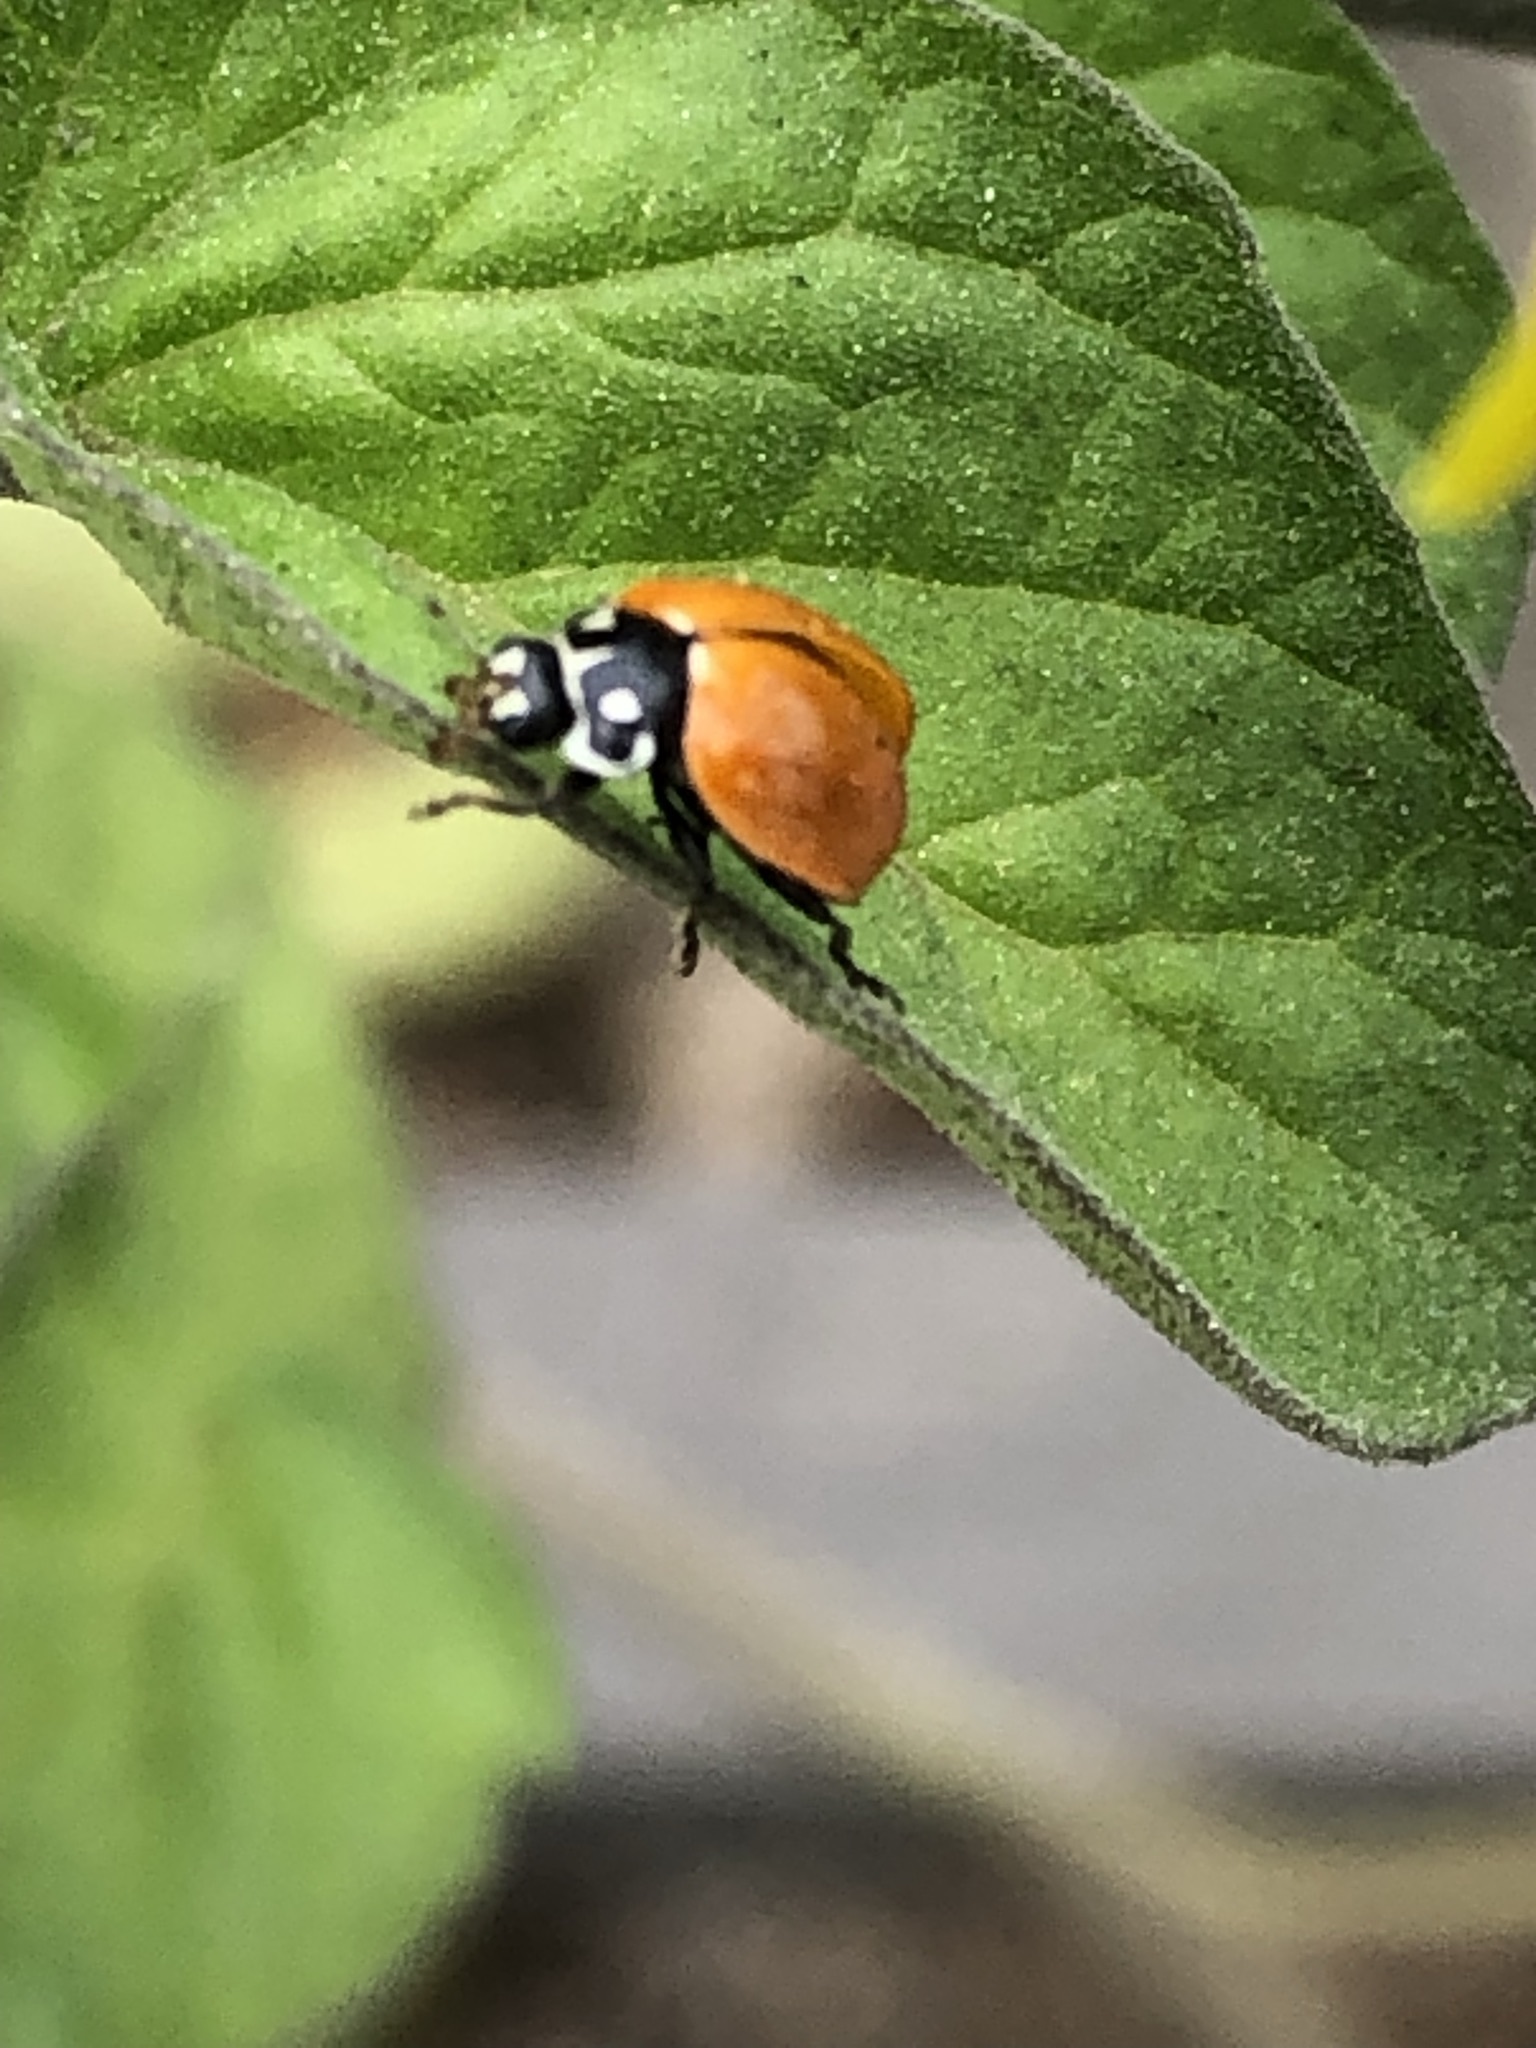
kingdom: Animalia
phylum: Arthropoda
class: Insecta
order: Coleoptera
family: Coccinellidae
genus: Cycloneda
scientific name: Cycloneda sanguinea
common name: Ladybird beetle
